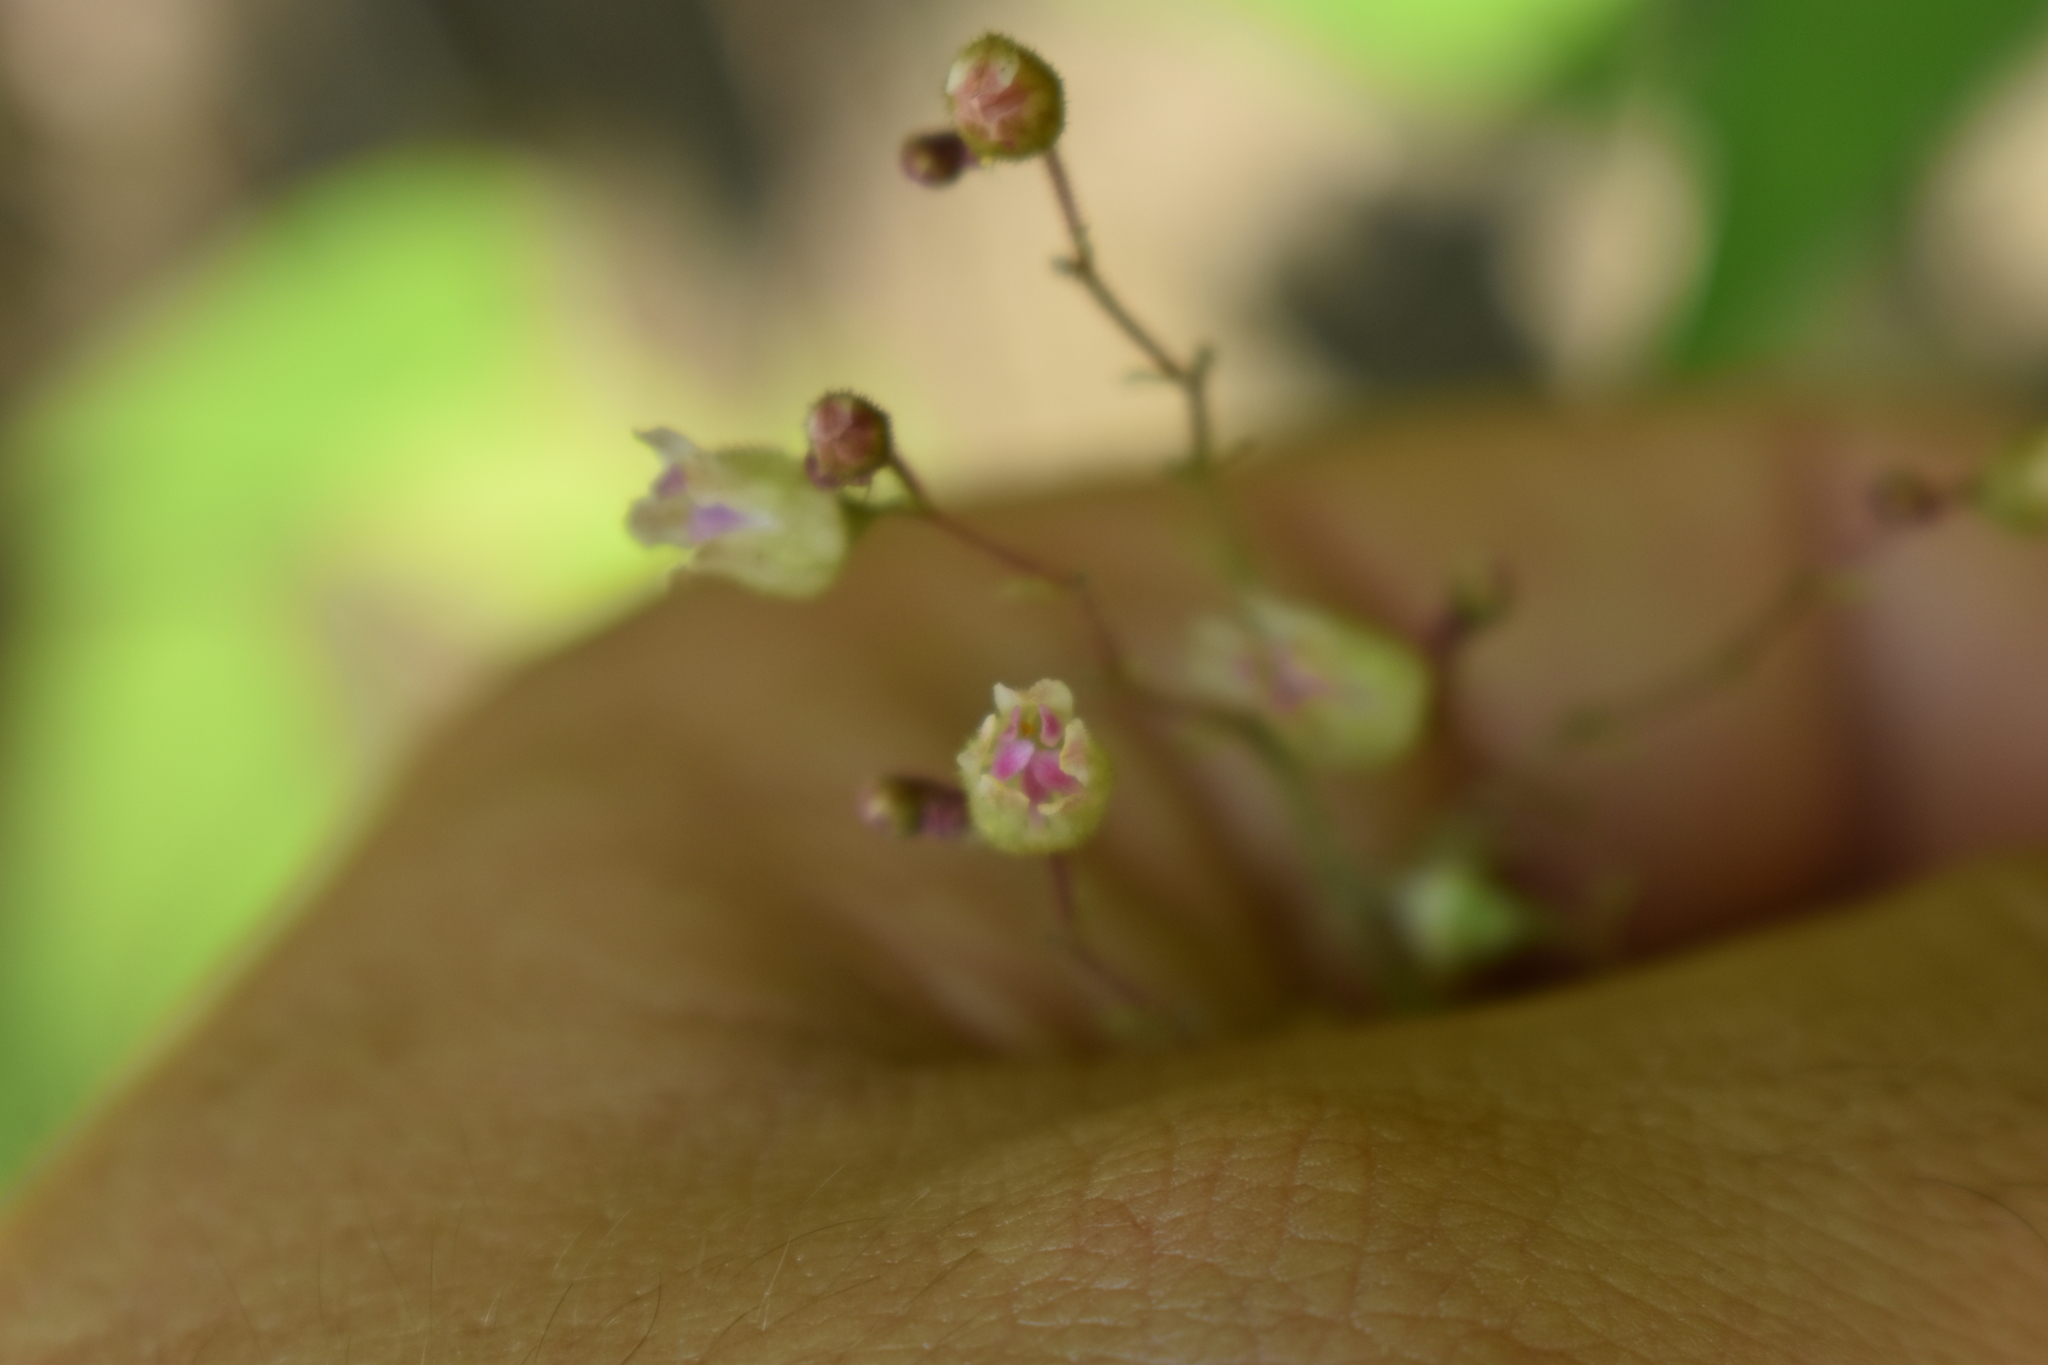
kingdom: Plantae
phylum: Tracheophyta
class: Magnoliopsida
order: Saxifragales
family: Saxifragaceae
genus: Heuchera
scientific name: Heuchera longiflora
